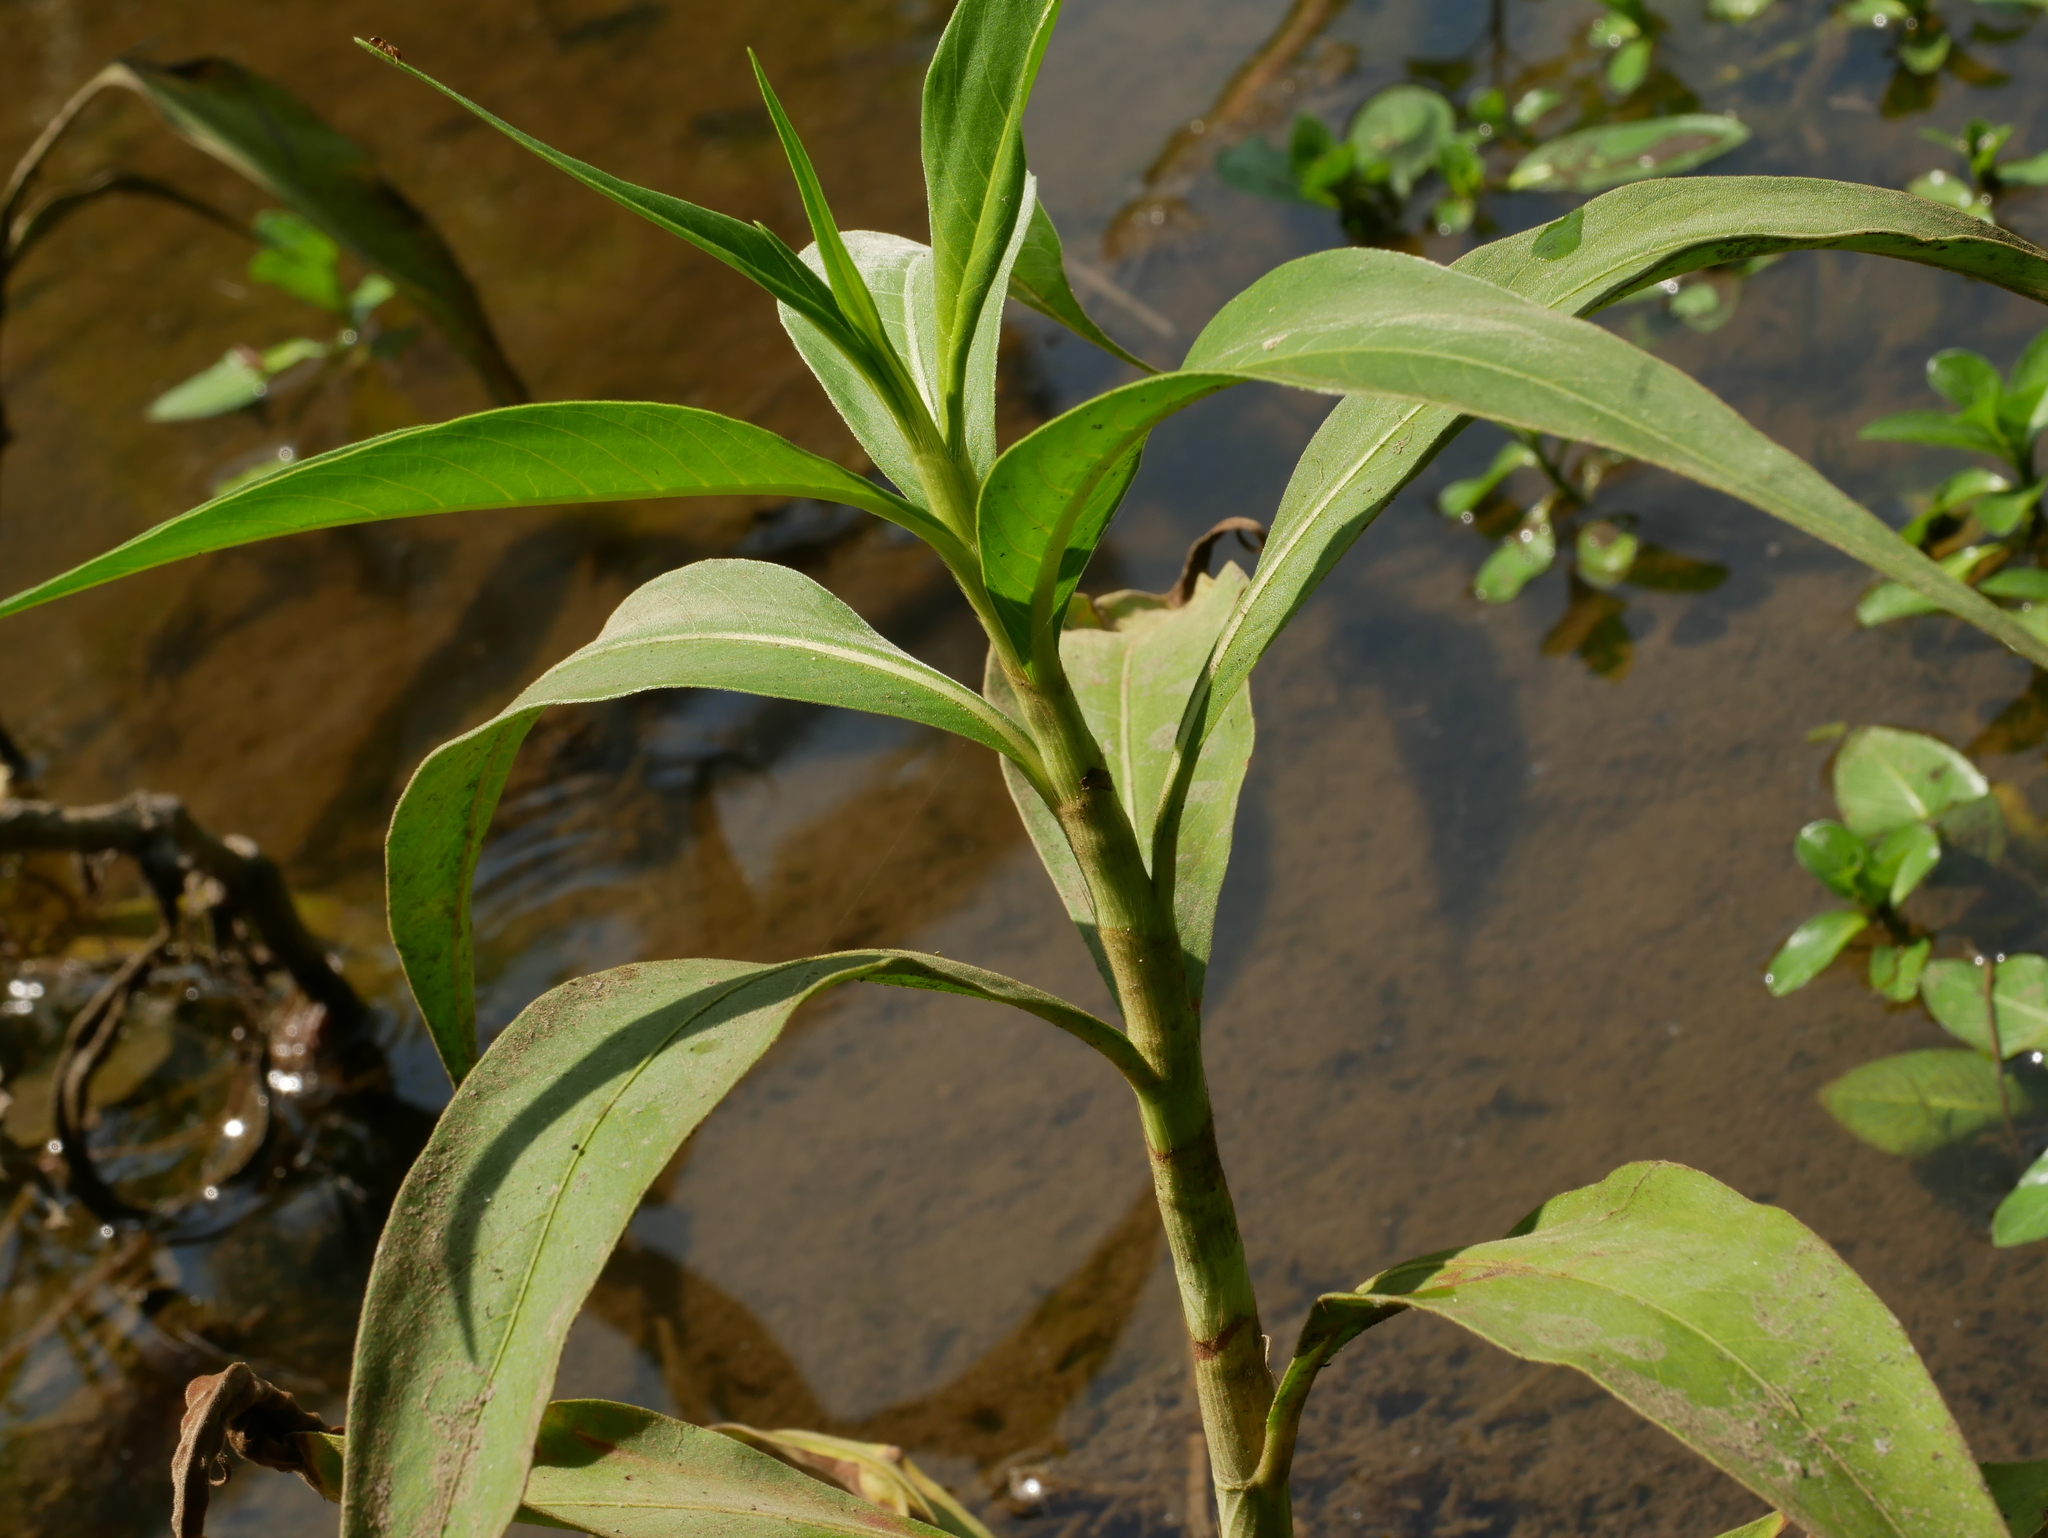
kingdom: Plantae
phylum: Tracheophyta
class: Magnoliopsida
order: Caryophyllales
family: Polygonaceae
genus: Persicaria
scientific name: Persicaria lanata
